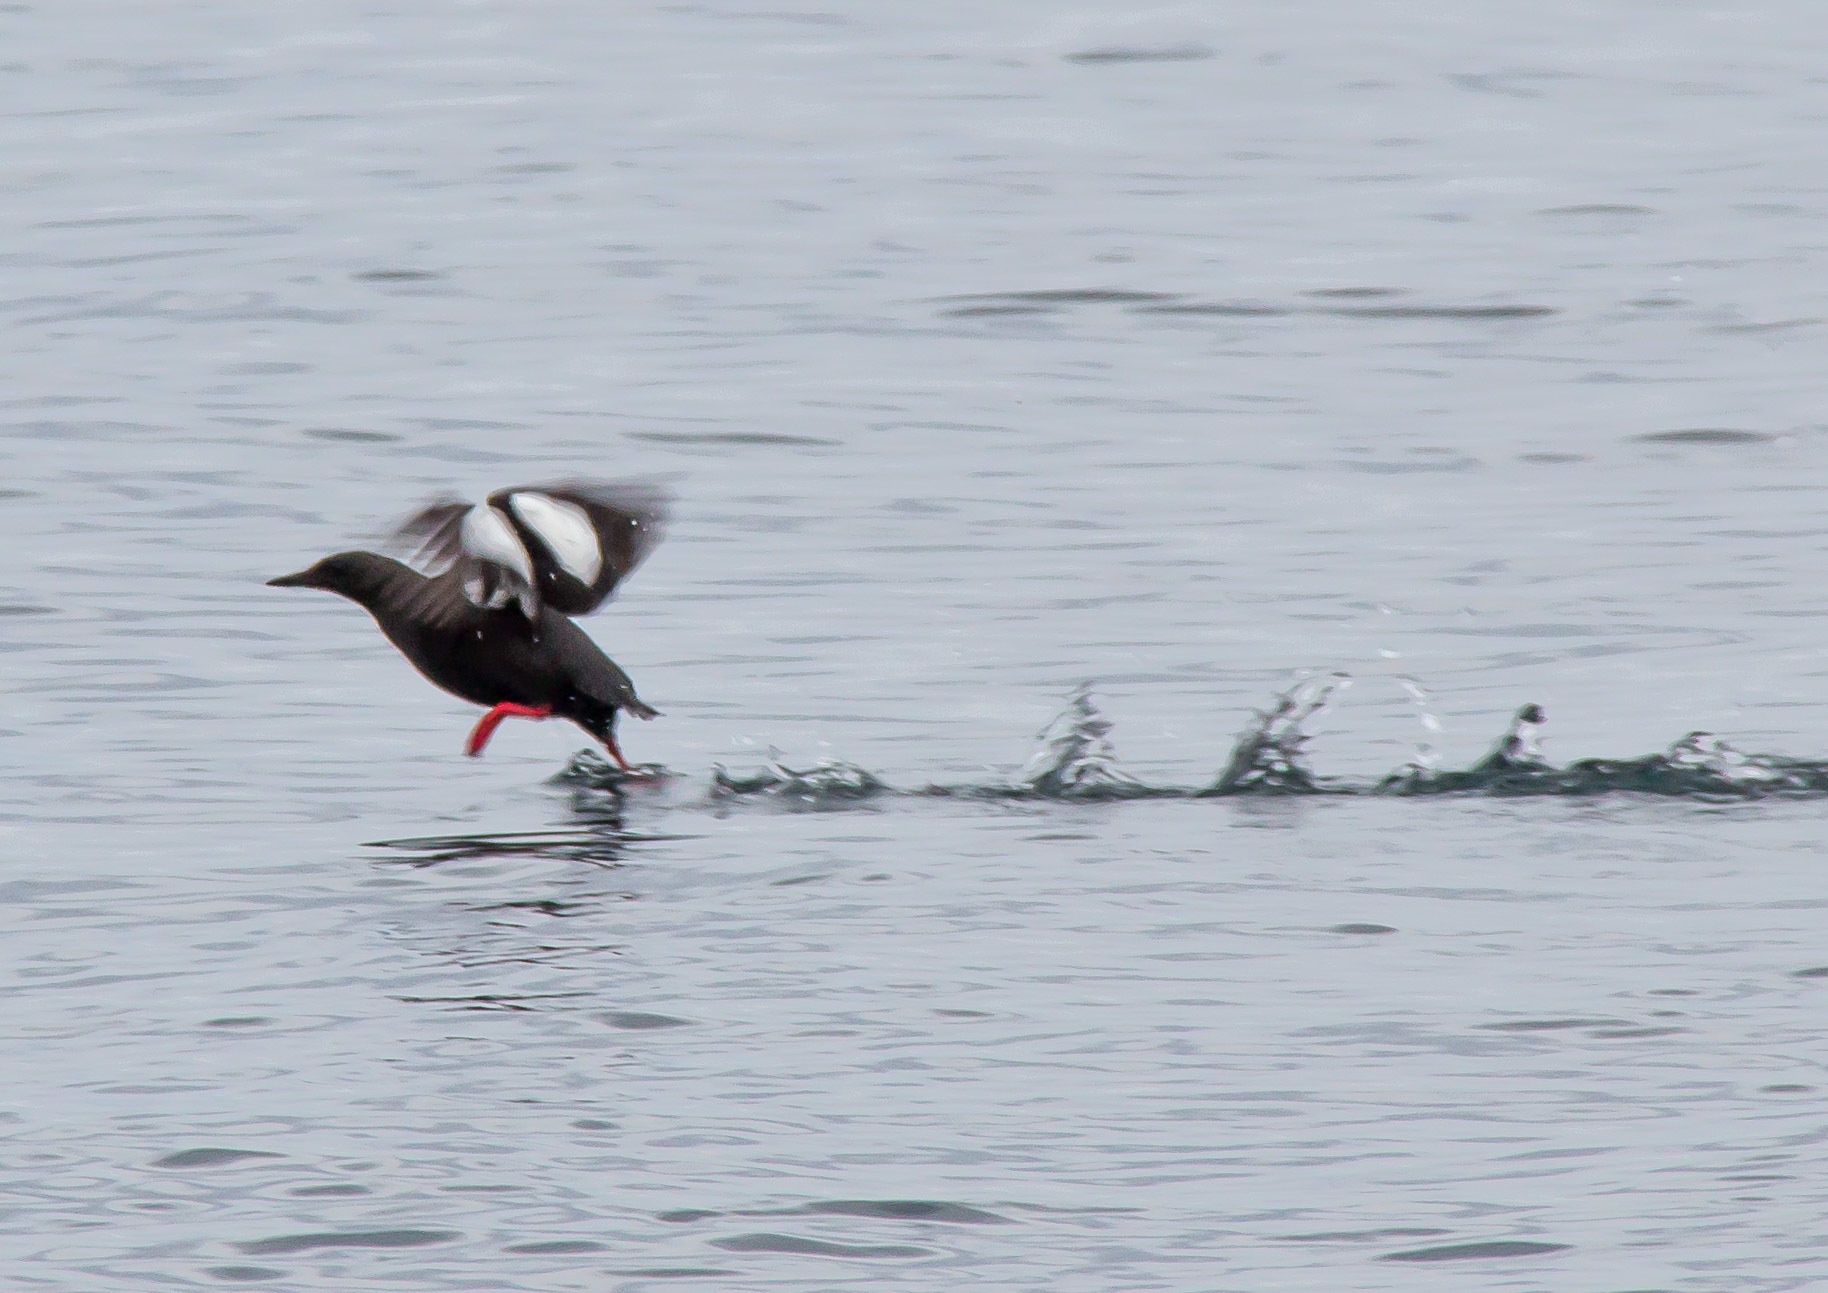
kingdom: Animalia
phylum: Chordata
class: Aves
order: Charadriiformes
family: Alcidae
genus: Cepphus
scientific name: Cepphus grylle
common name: Black guillemot
